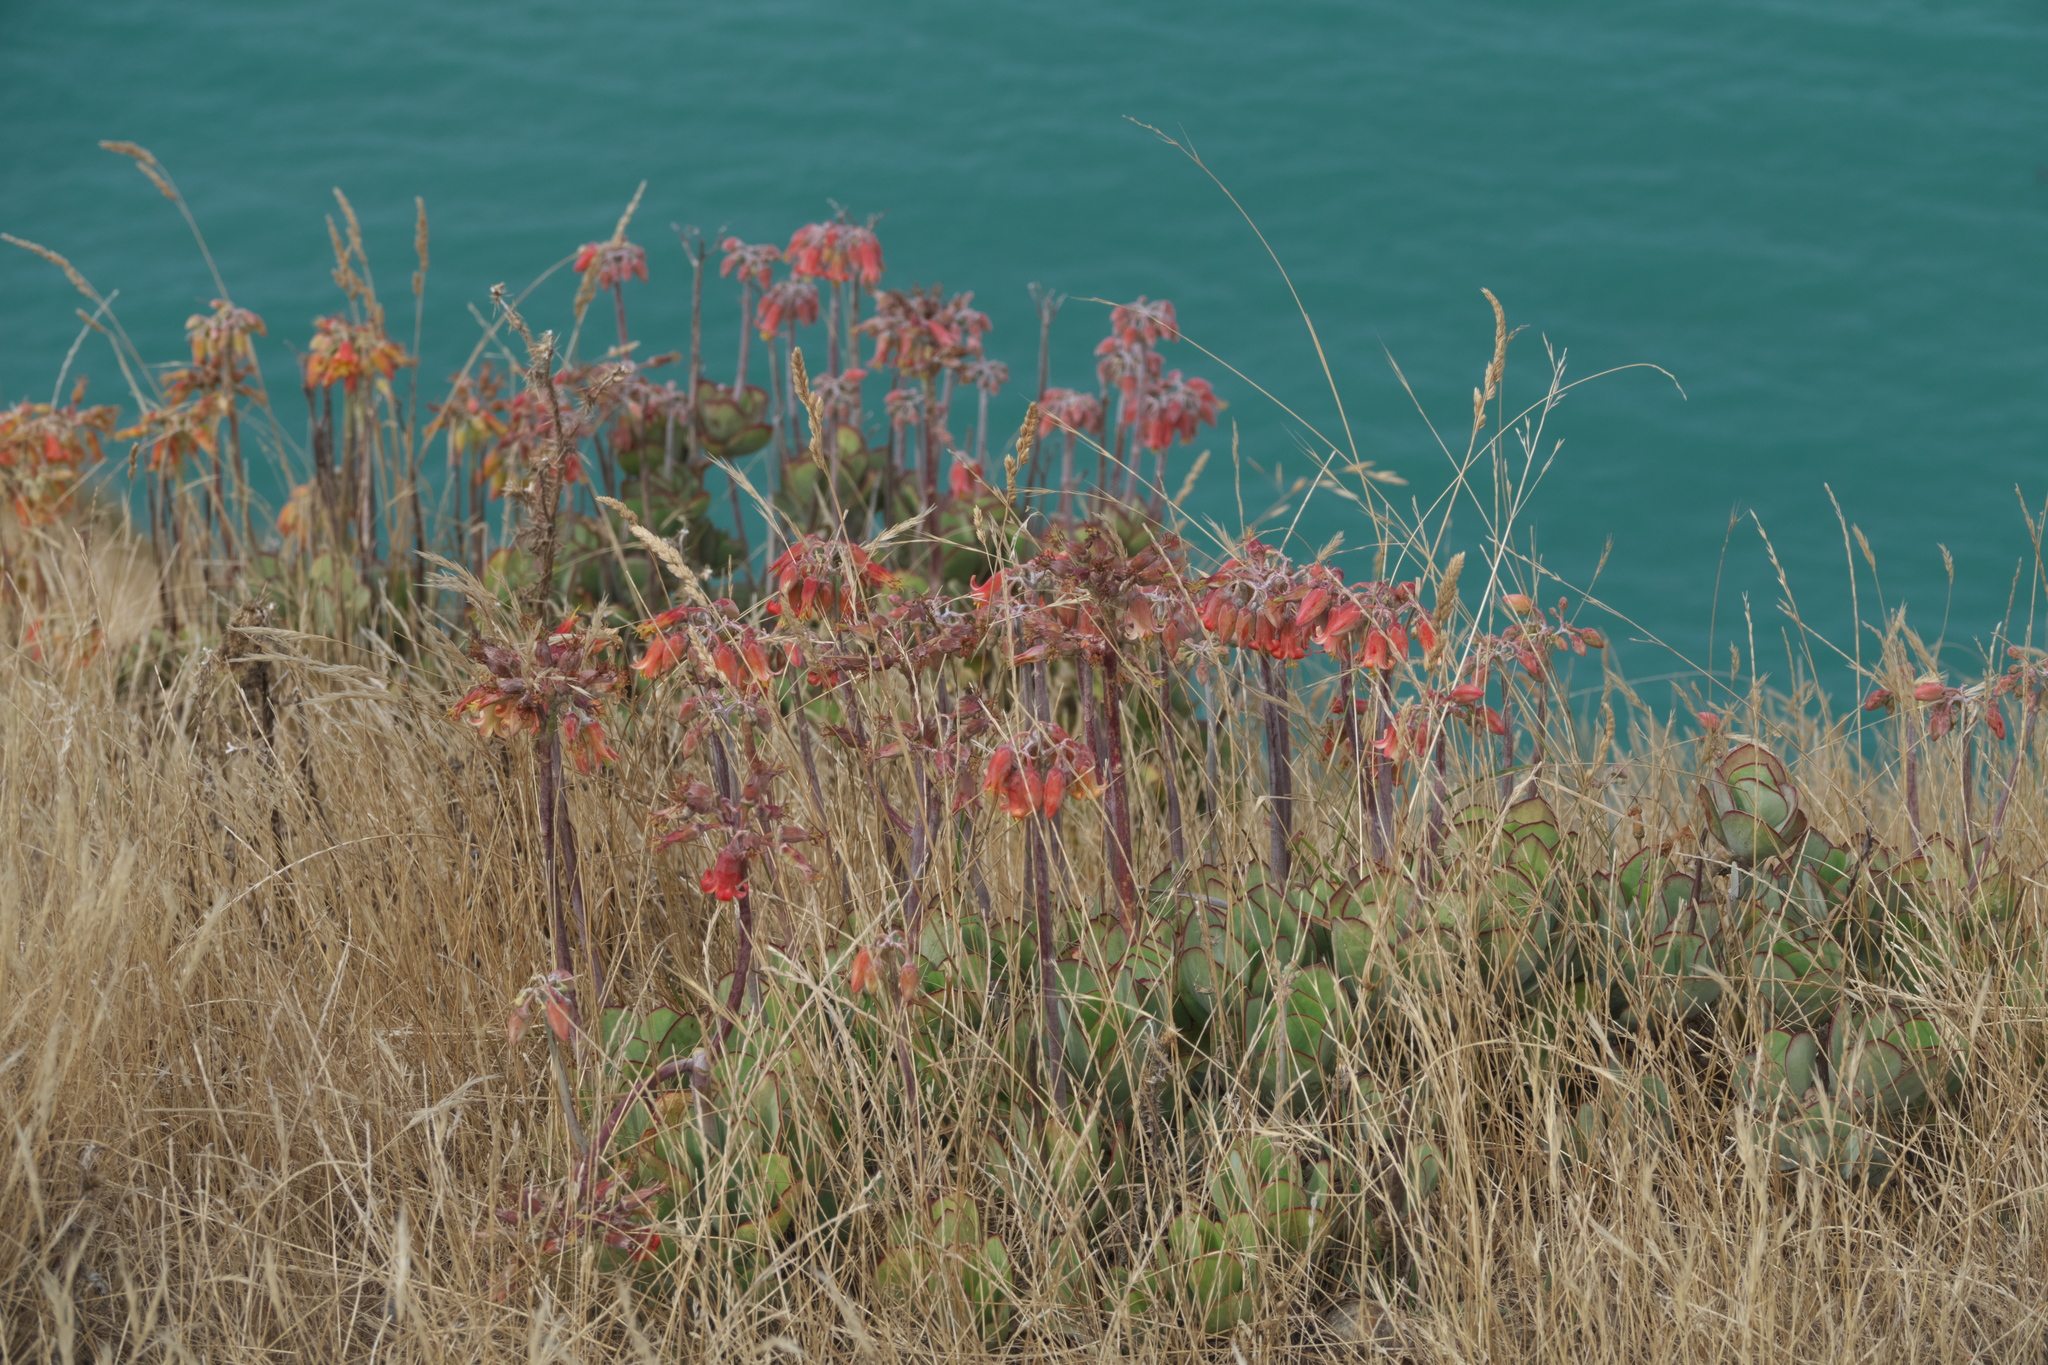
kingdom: Plantae
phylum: Tracheophyta
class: Magnoliopsida
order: Saxifragales
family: Crassulaceae
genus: Cotyledon
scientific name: Cotyledon orbiculata
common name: Pig's ear
